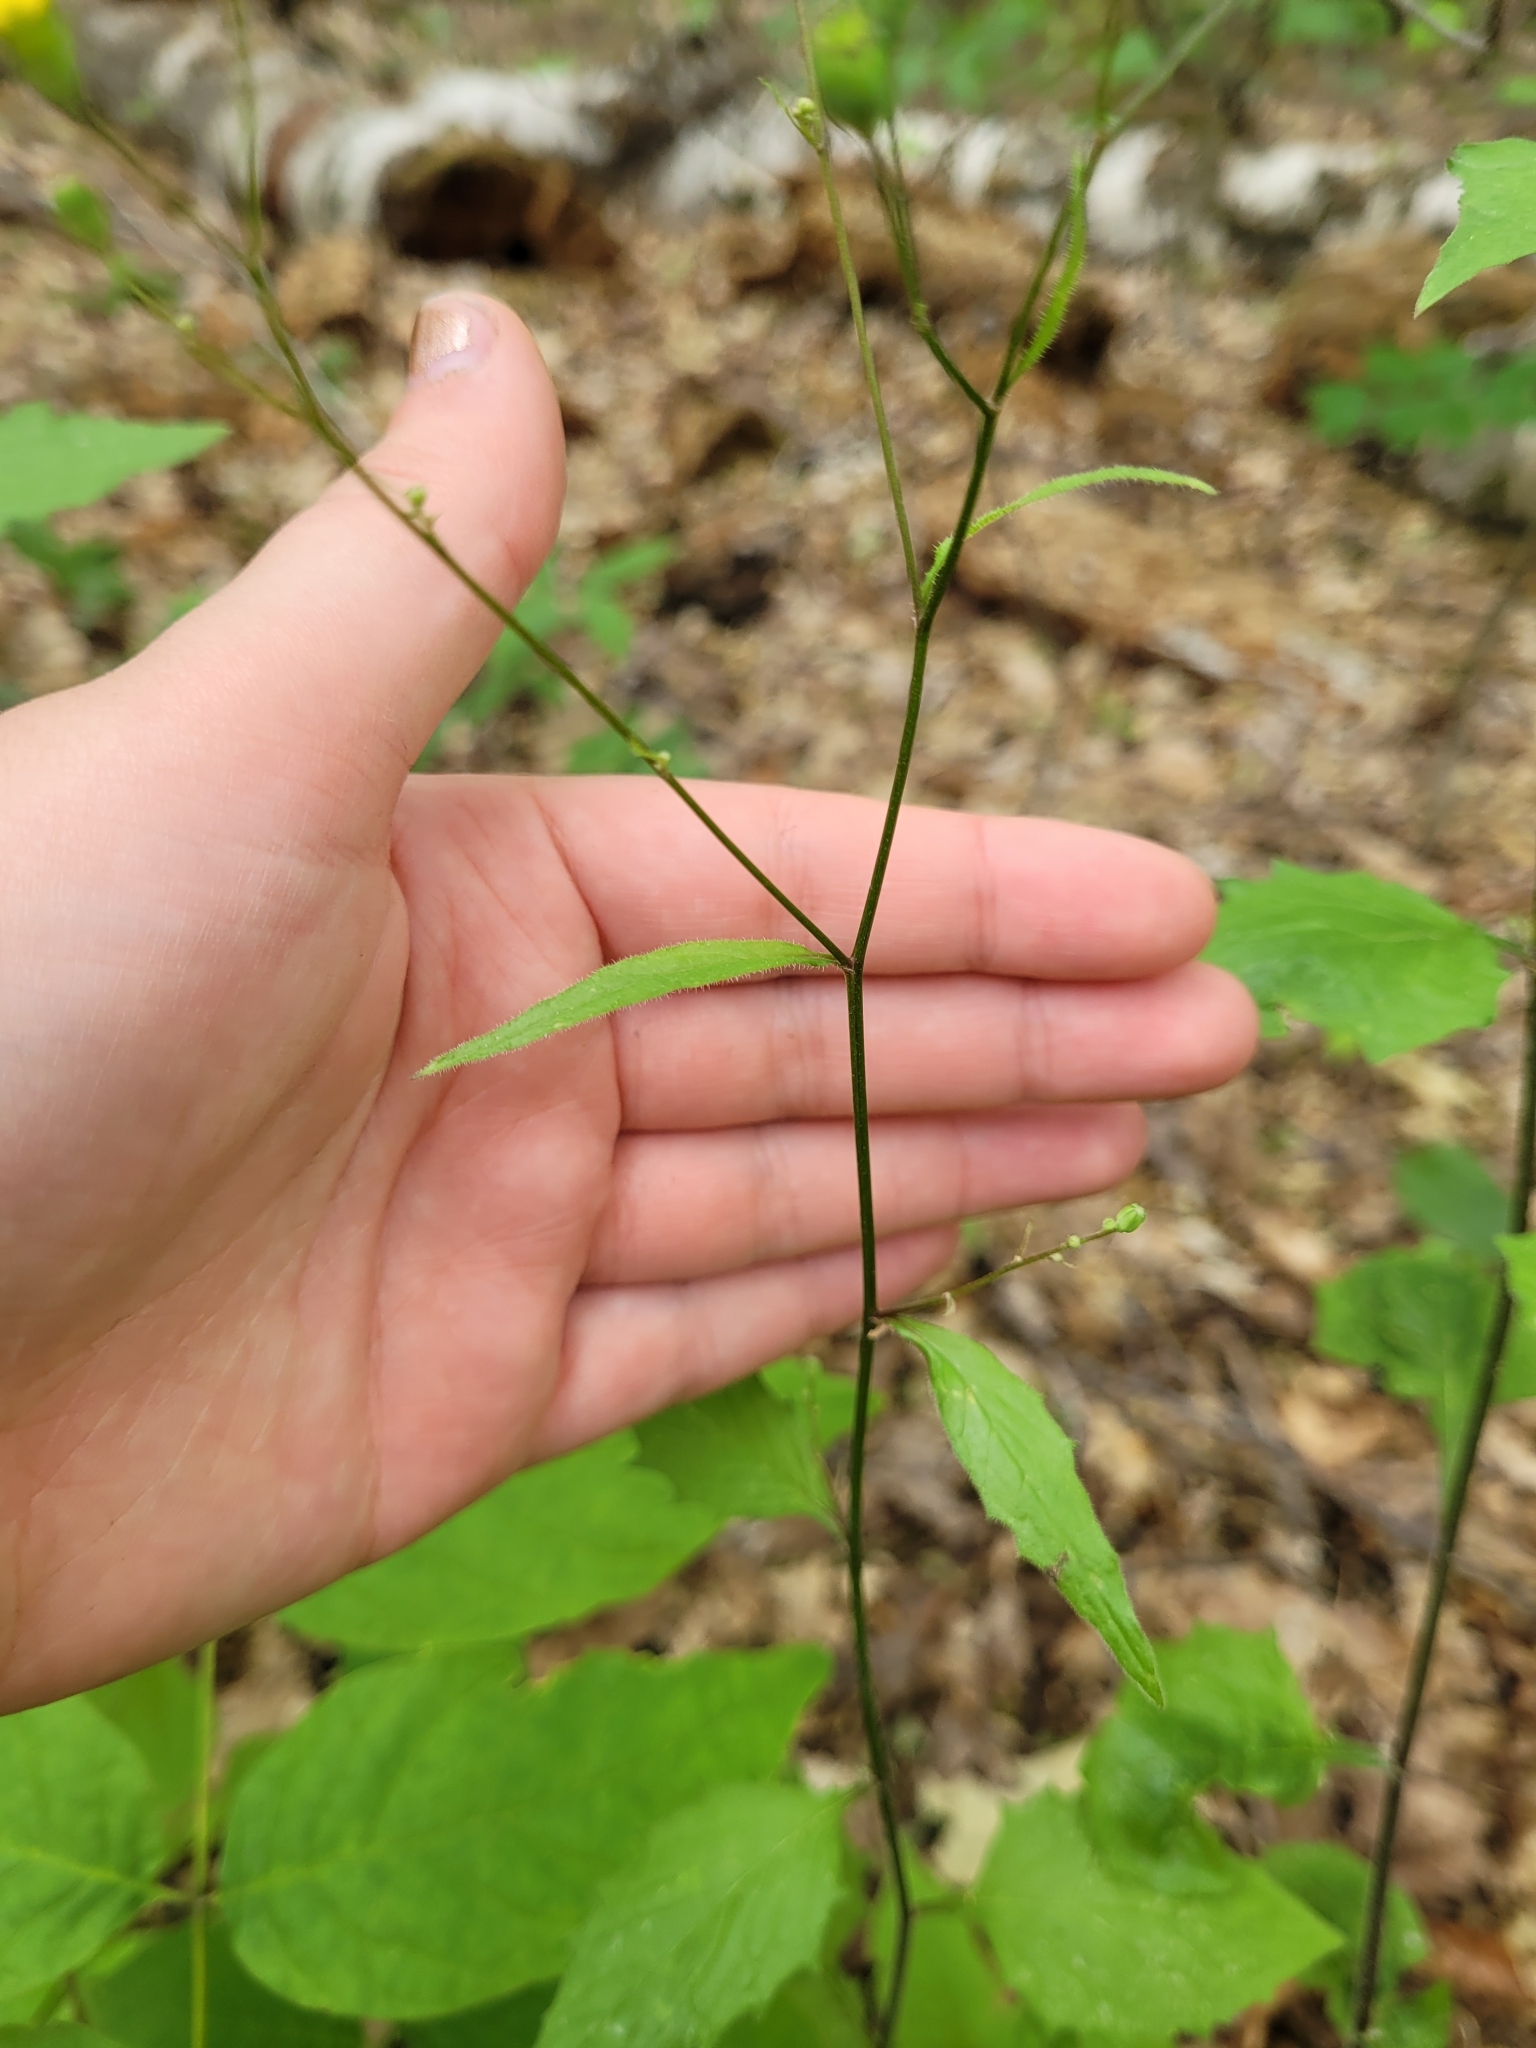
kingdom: Plantae
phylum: Tracheophyta
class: Magnoliopsida
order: Asterales
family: Asteraceae
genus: Lapsana
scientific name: Lapsana communis
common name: Nipplewort
